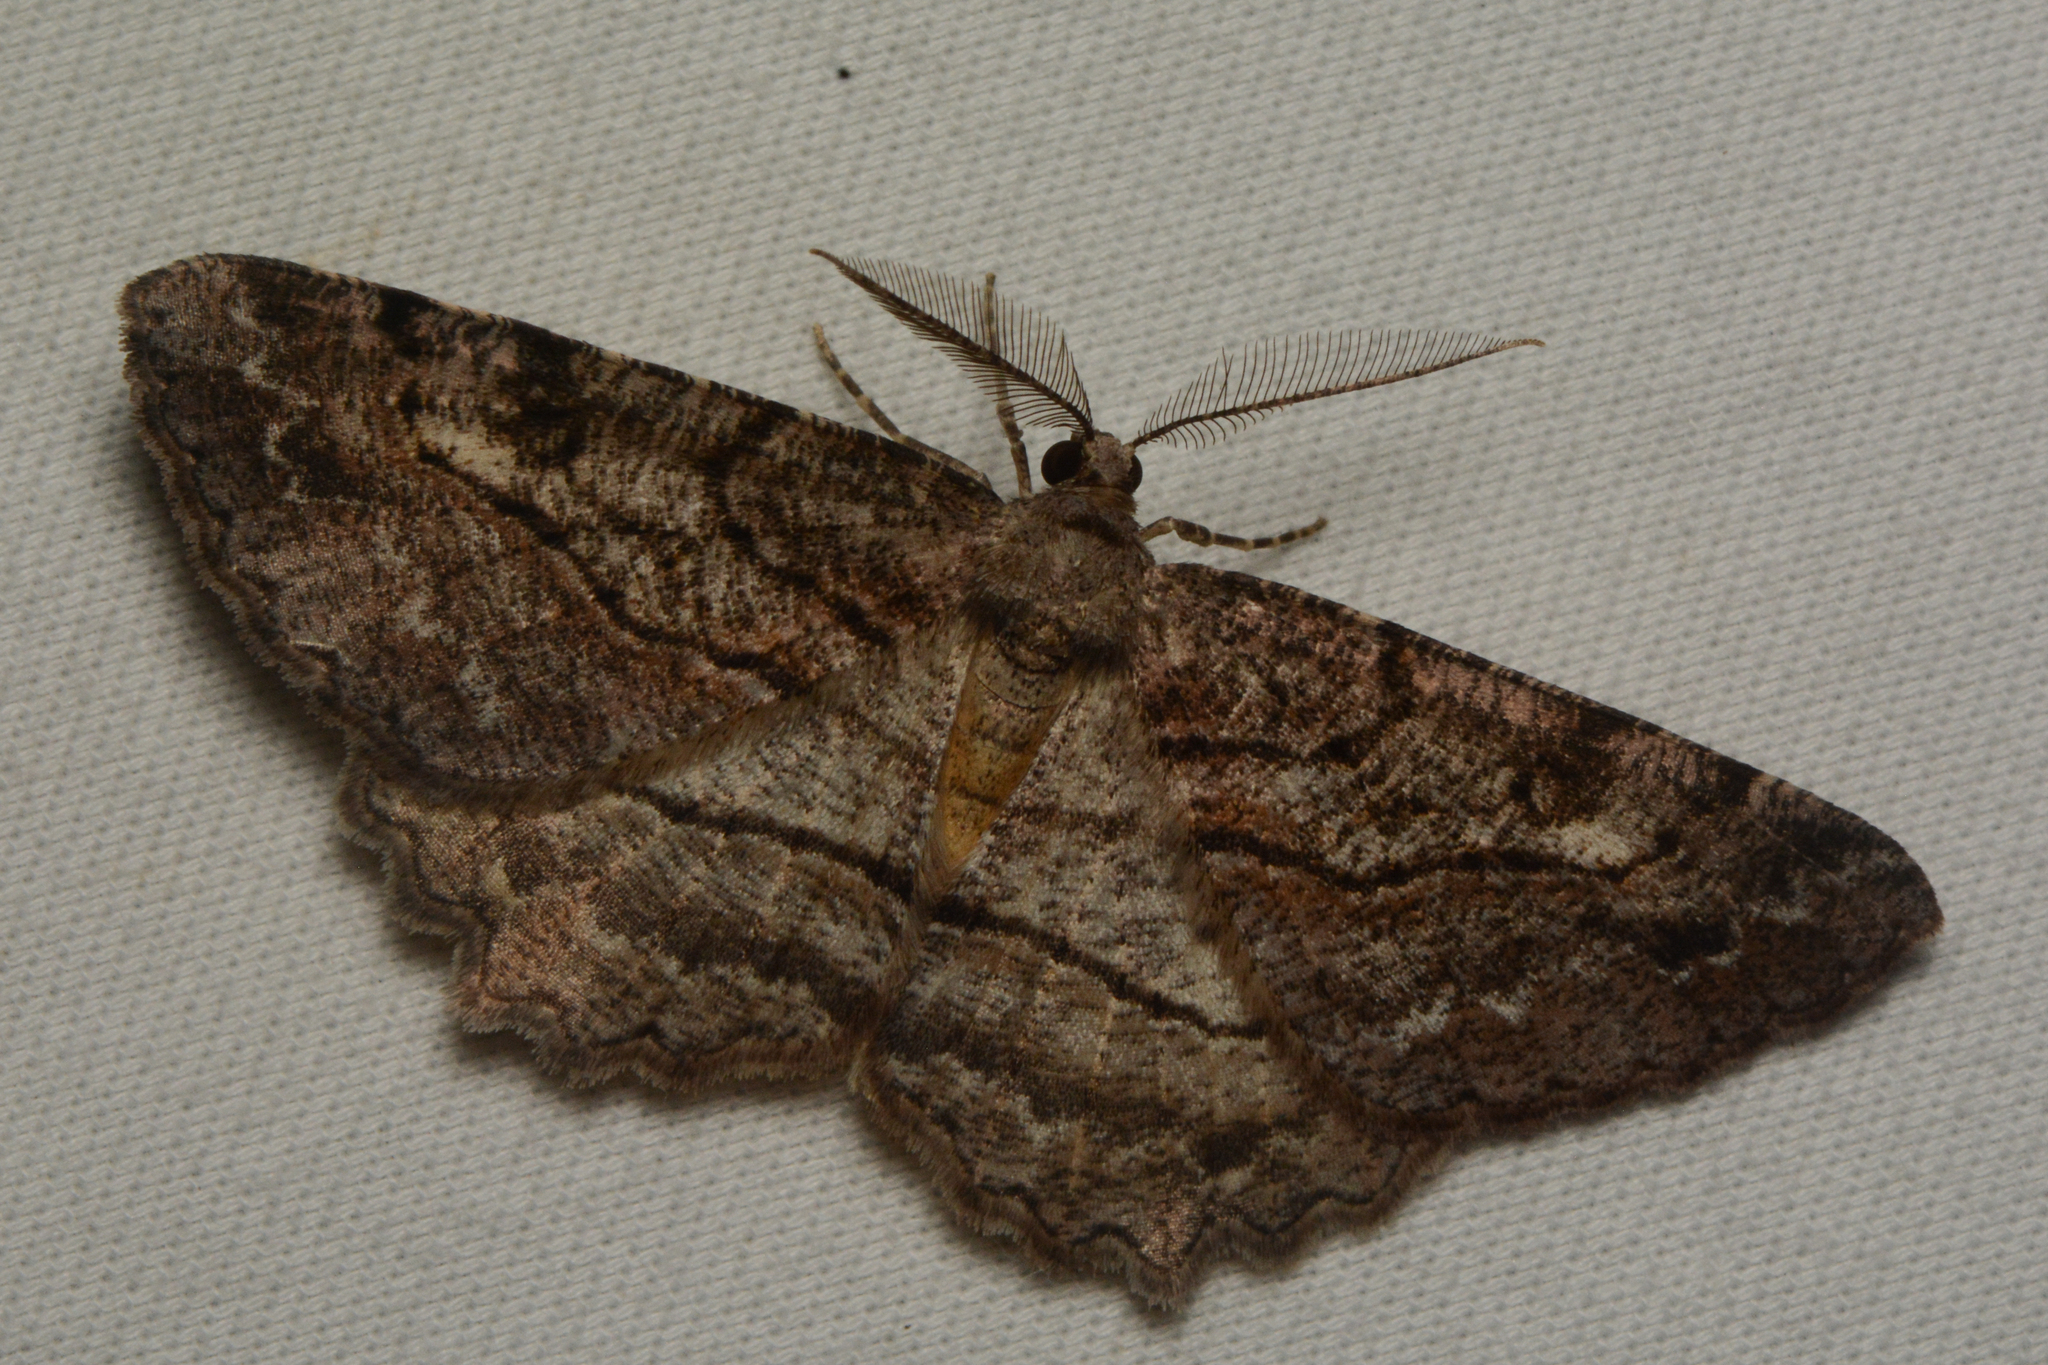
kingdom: Animalia
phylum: Arthropoda
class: Insecta
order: Lepidoptera
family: Geometridae
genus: Neoalcis
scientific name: Neoalcis californiaria
